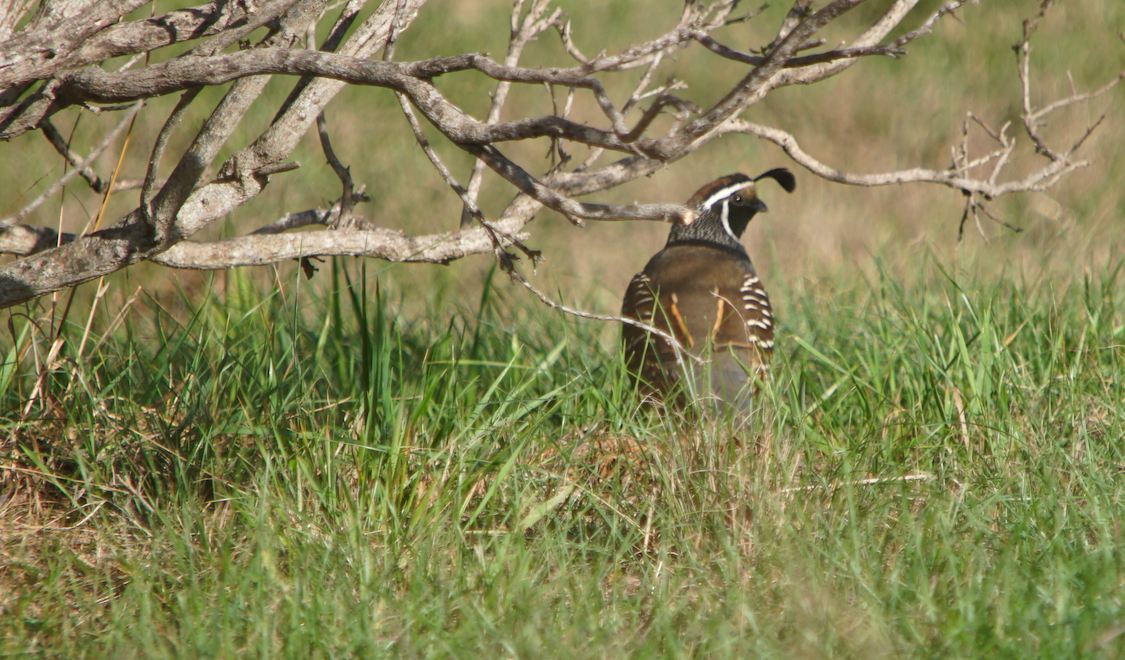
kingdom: Animalia
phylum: Chordata
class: Aves
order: Galliformes
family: Odontophoridae
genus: Callipepla
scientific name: Callipepla californica
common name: California quail
